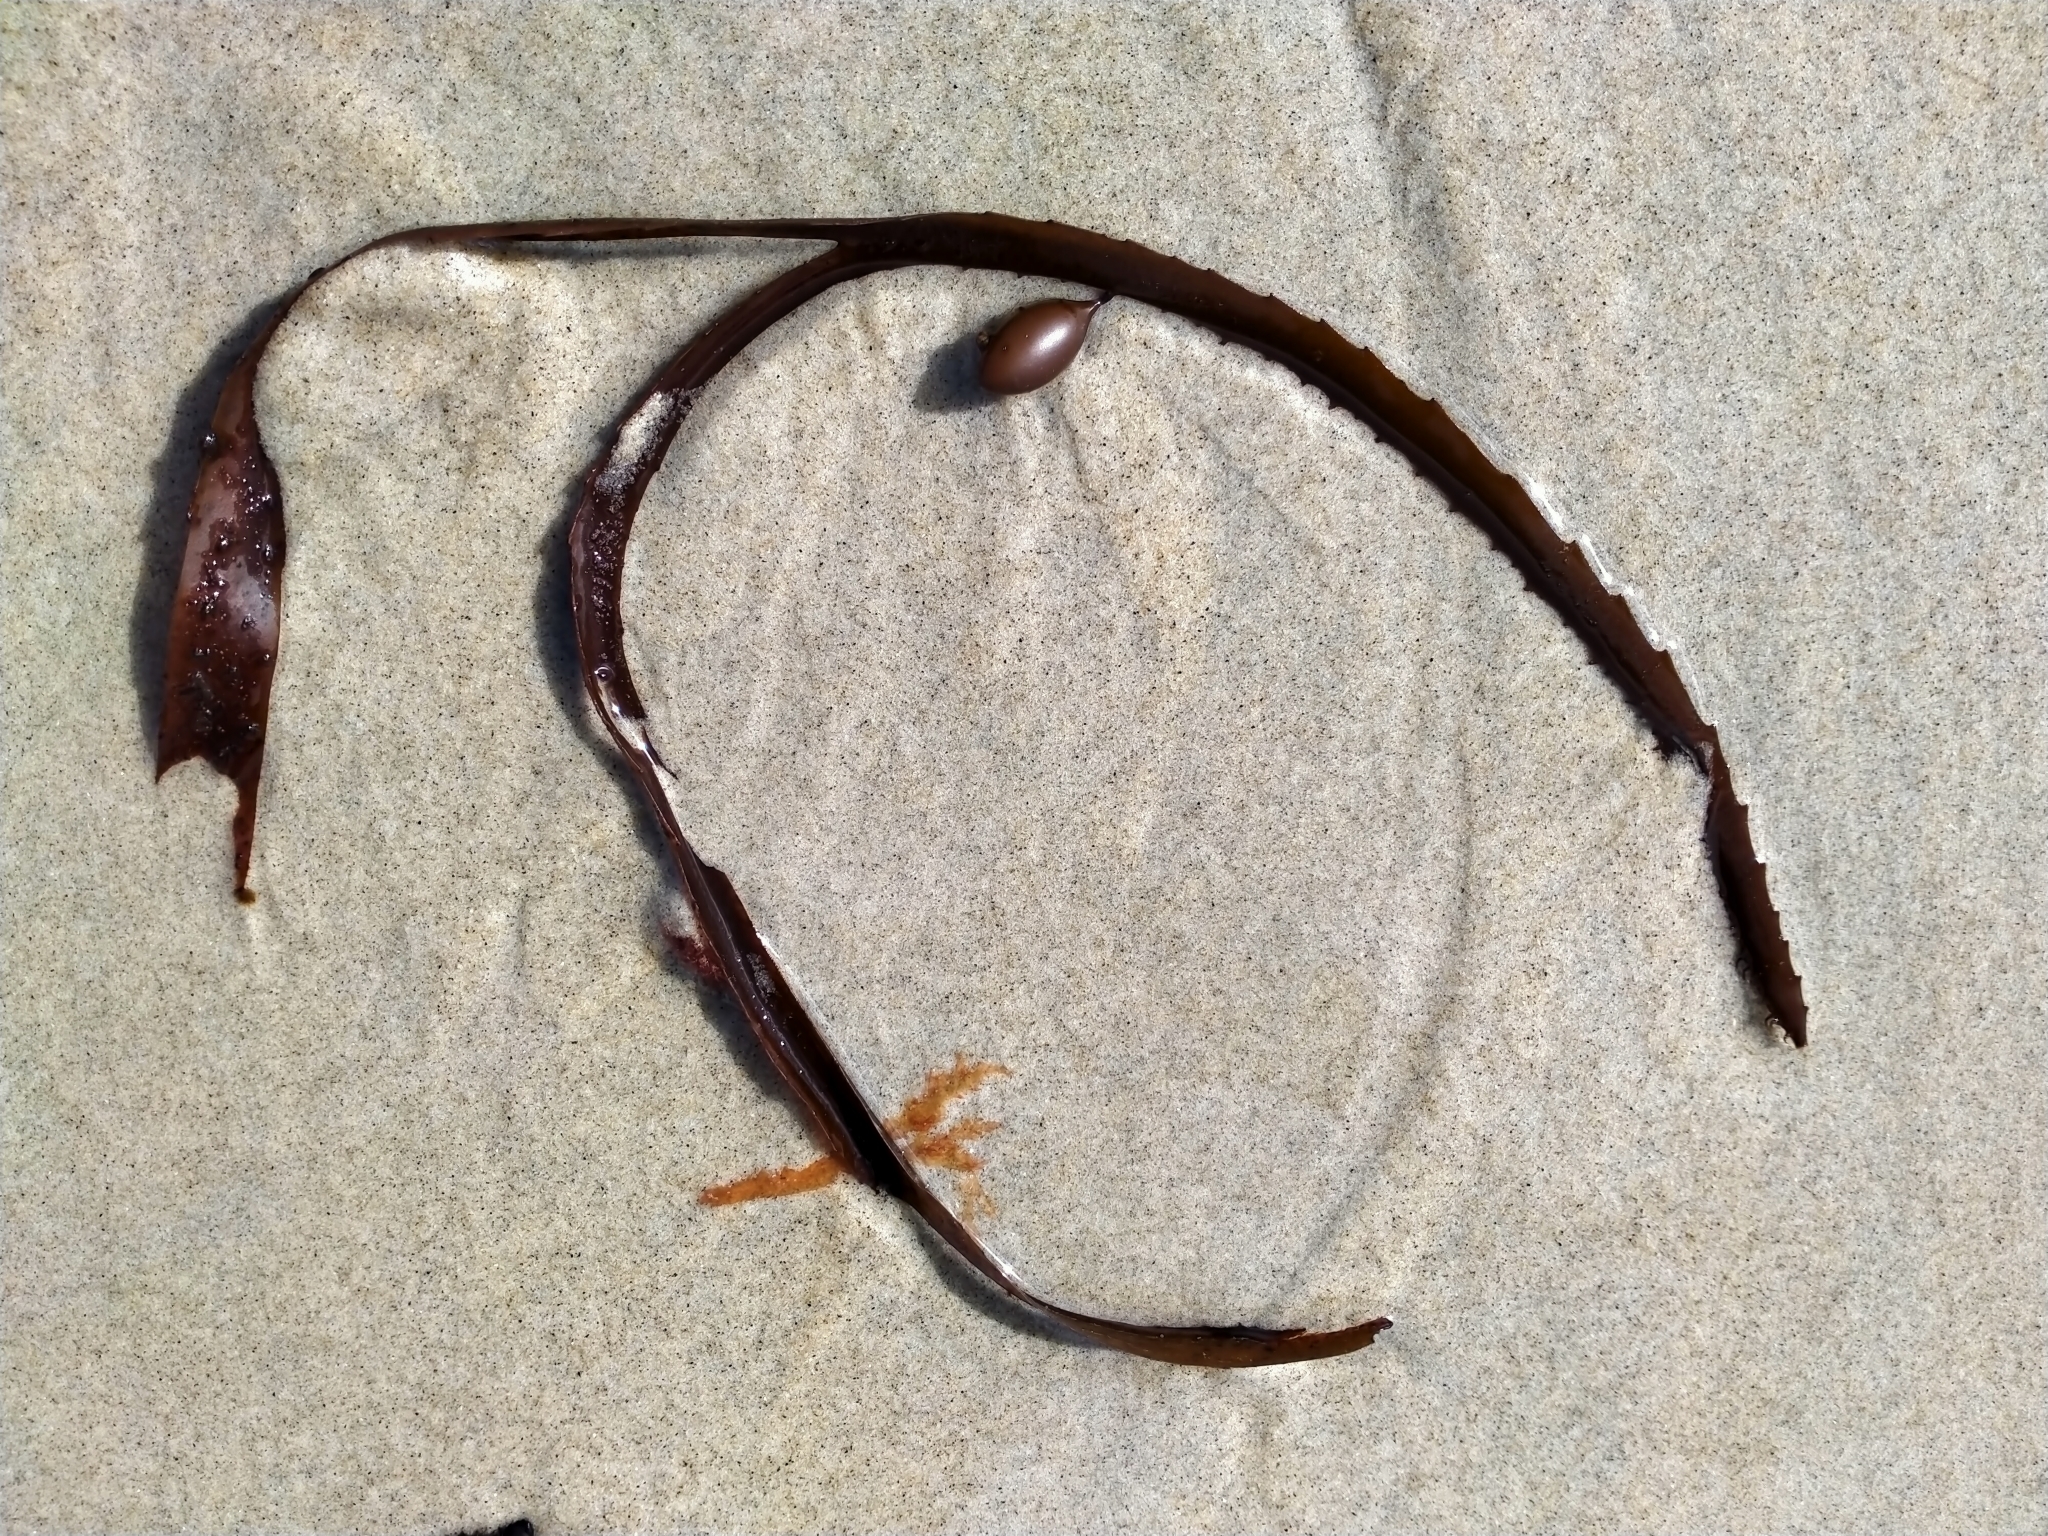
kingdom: Chromista
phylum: Ochrophyta
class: Phaeophyceae
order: Fucales
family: Seirococcaceae
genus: Marginariella
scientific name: Marginariella boryana
